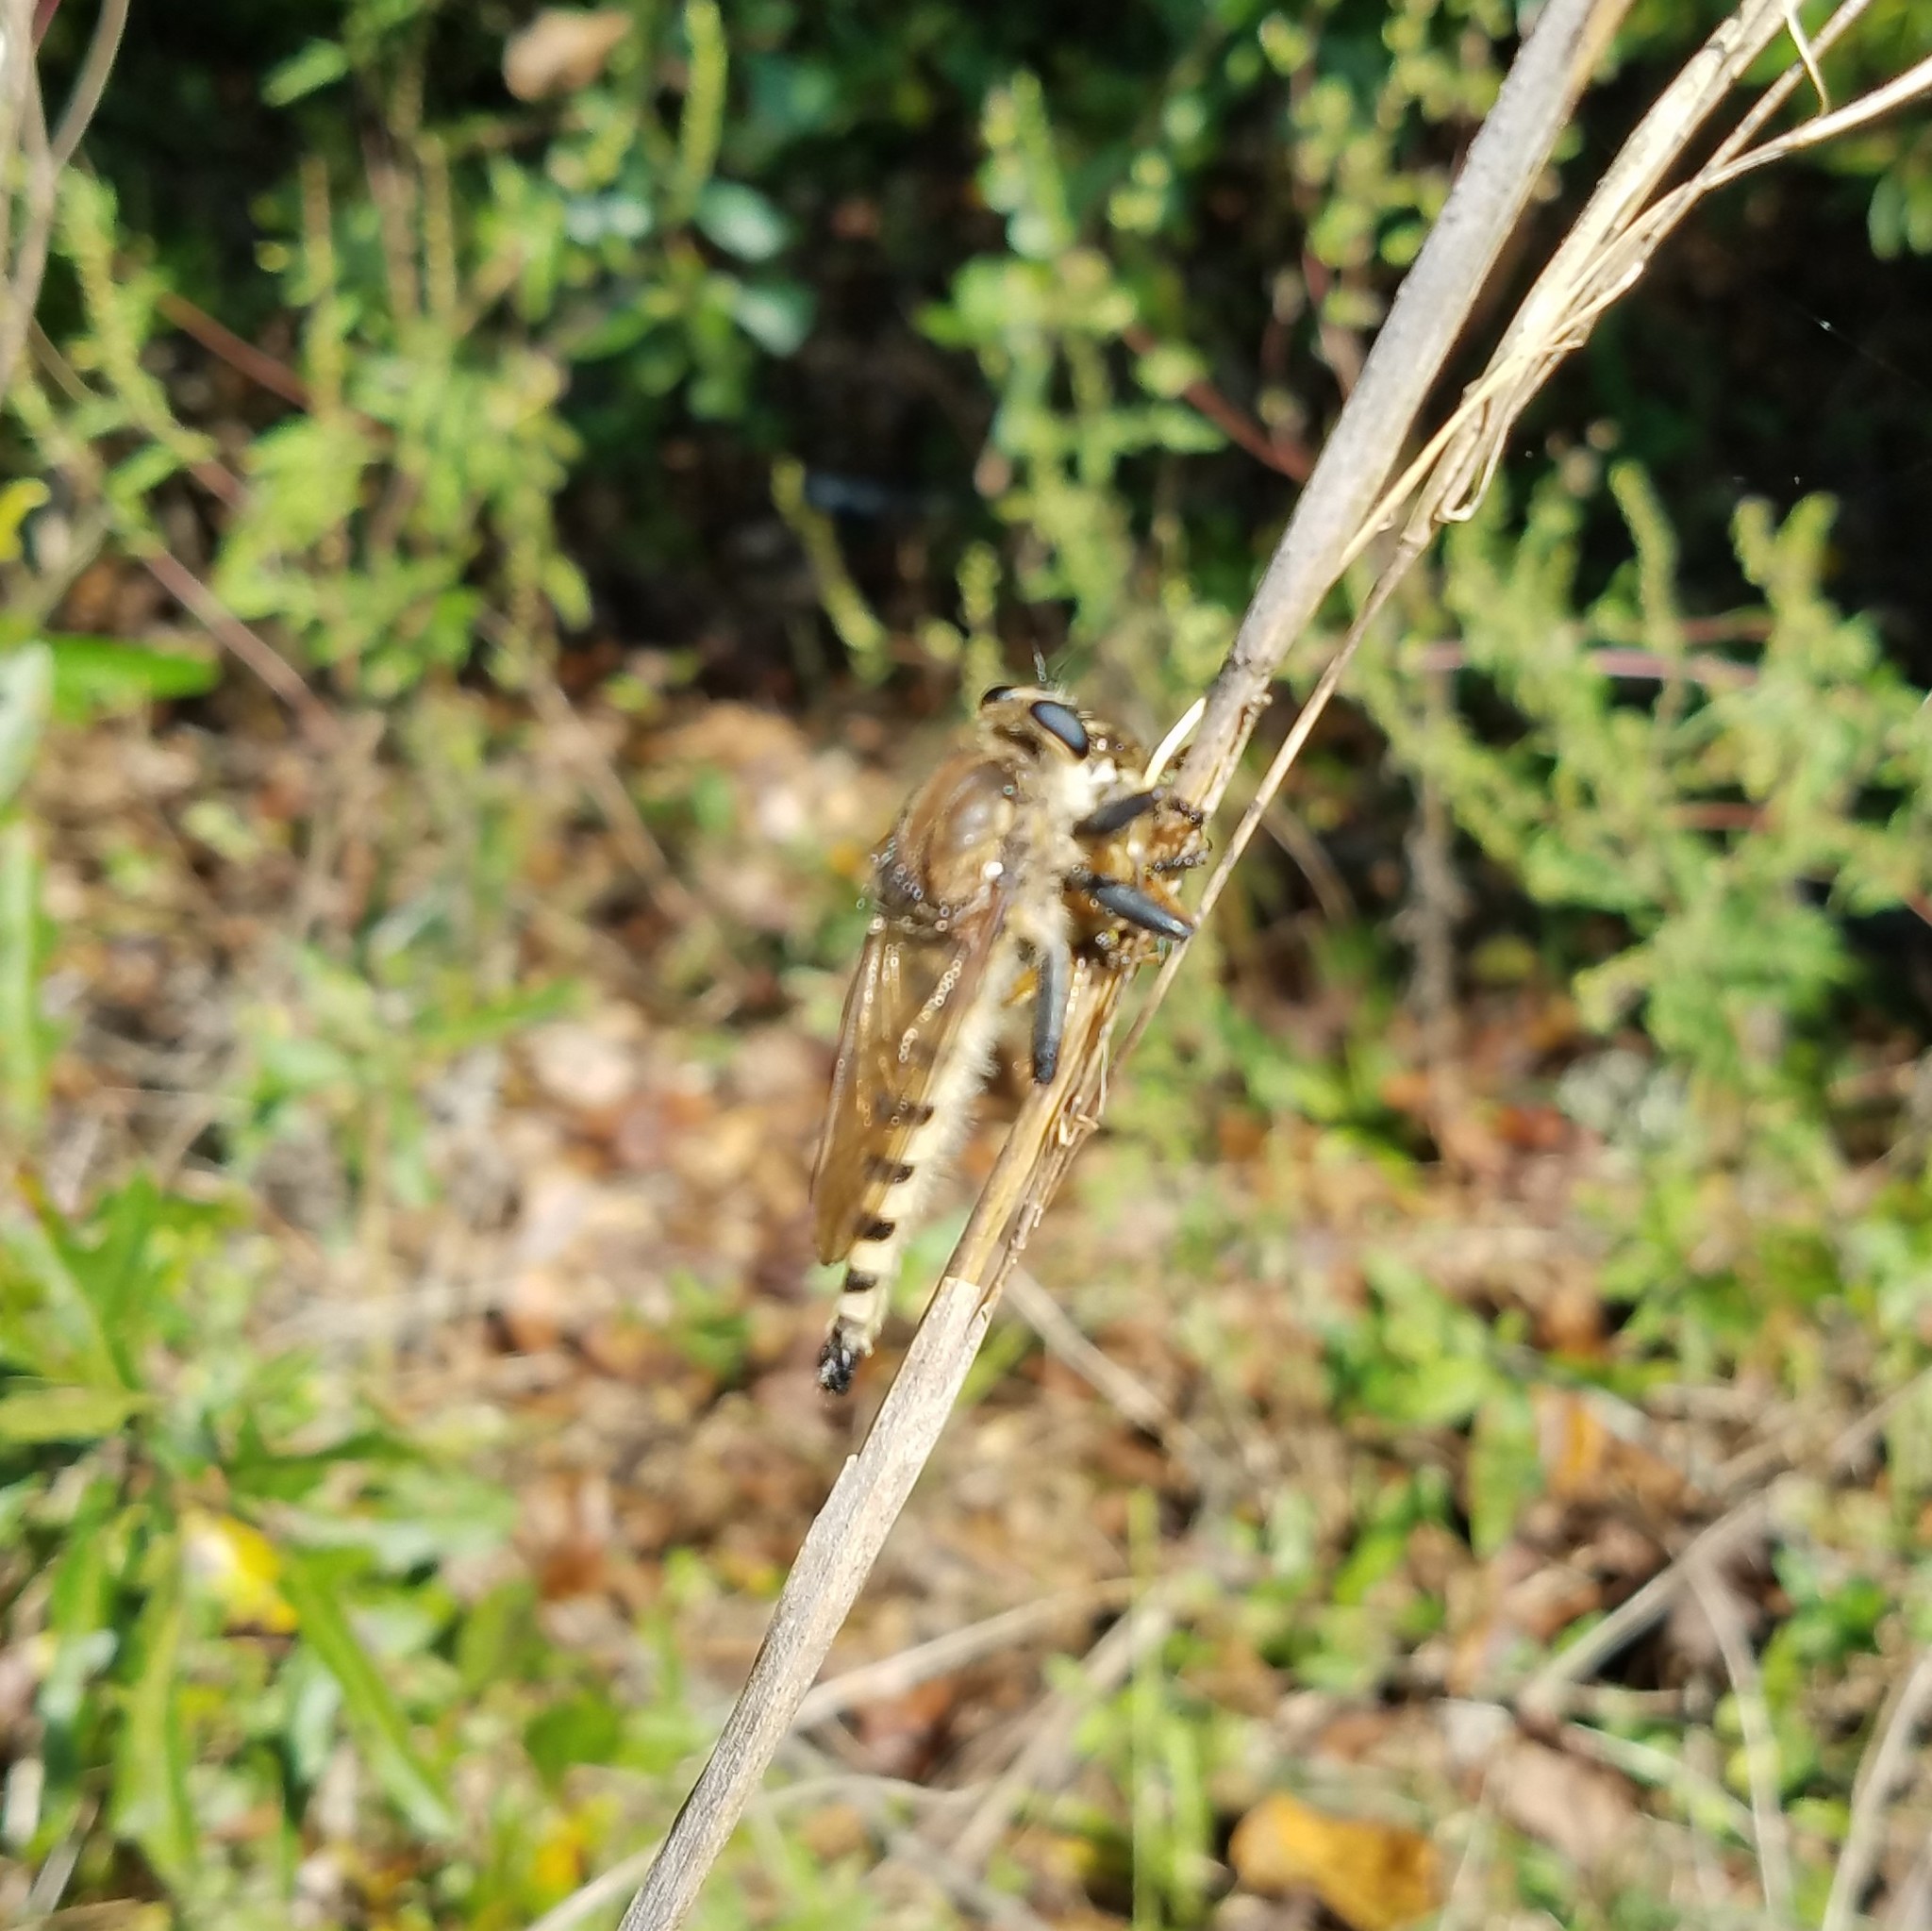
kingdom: Animalia
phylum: Arthropoda
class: Insecta
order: Diptera
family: Asilidae
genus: Promachus
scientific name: Promachus rufipes
